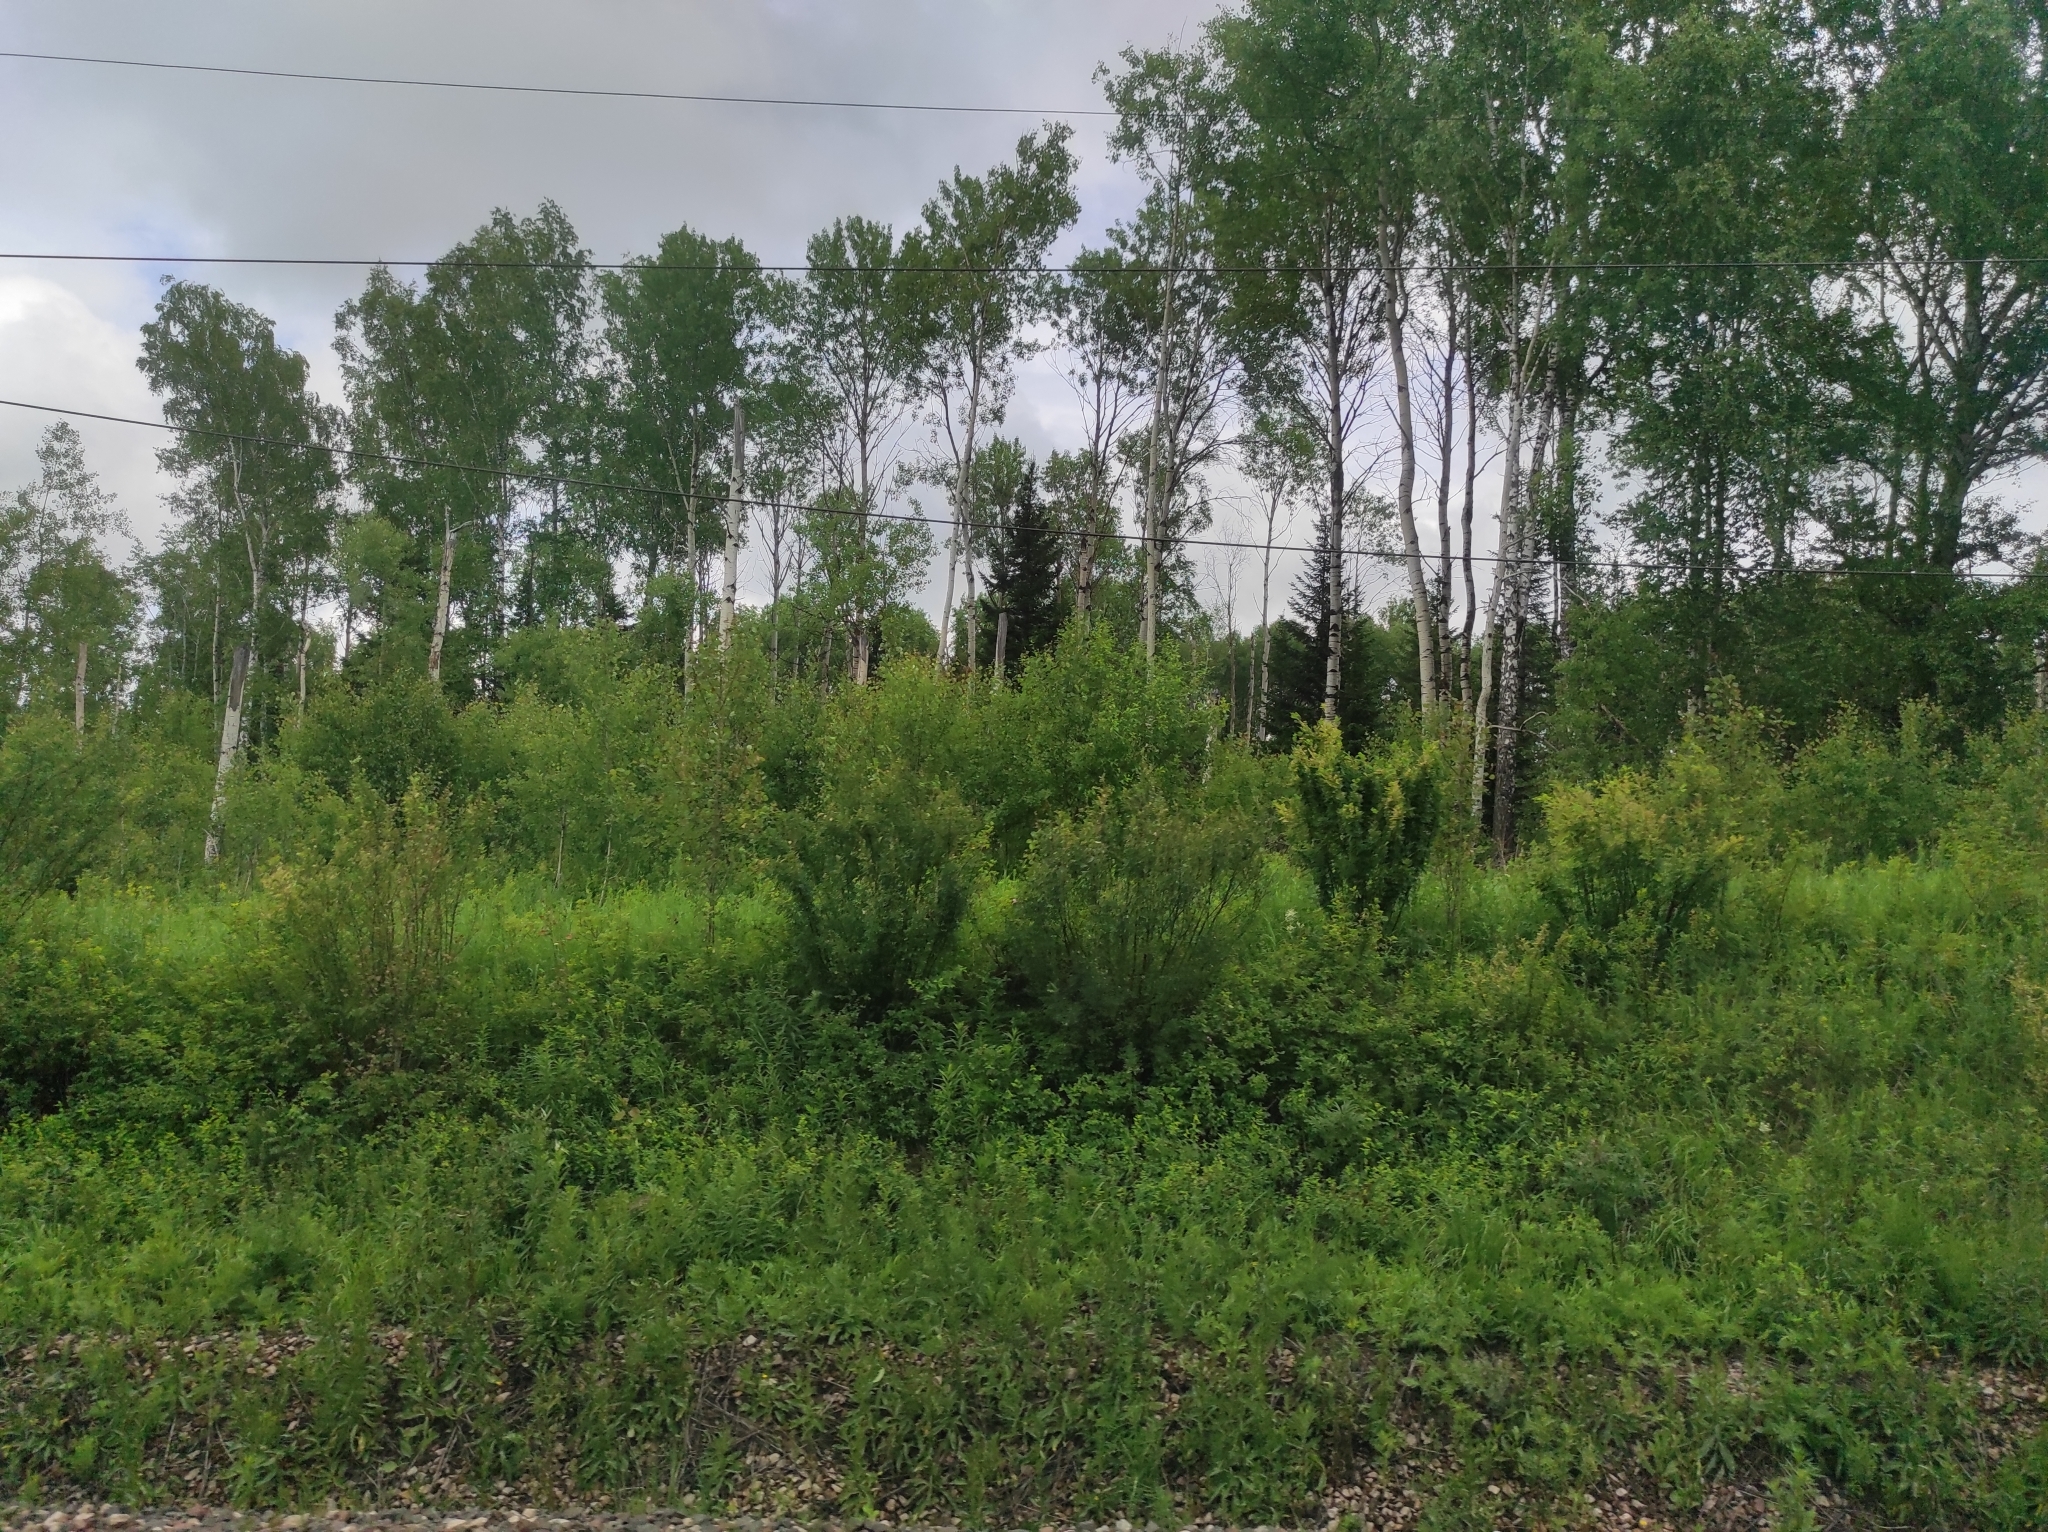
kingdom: Plantae
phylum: Tracheophyta
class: Magnoliopsida
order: Malpighiales
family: Salicaceae
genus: Populus
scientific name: Populus tremula
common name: European aspen
